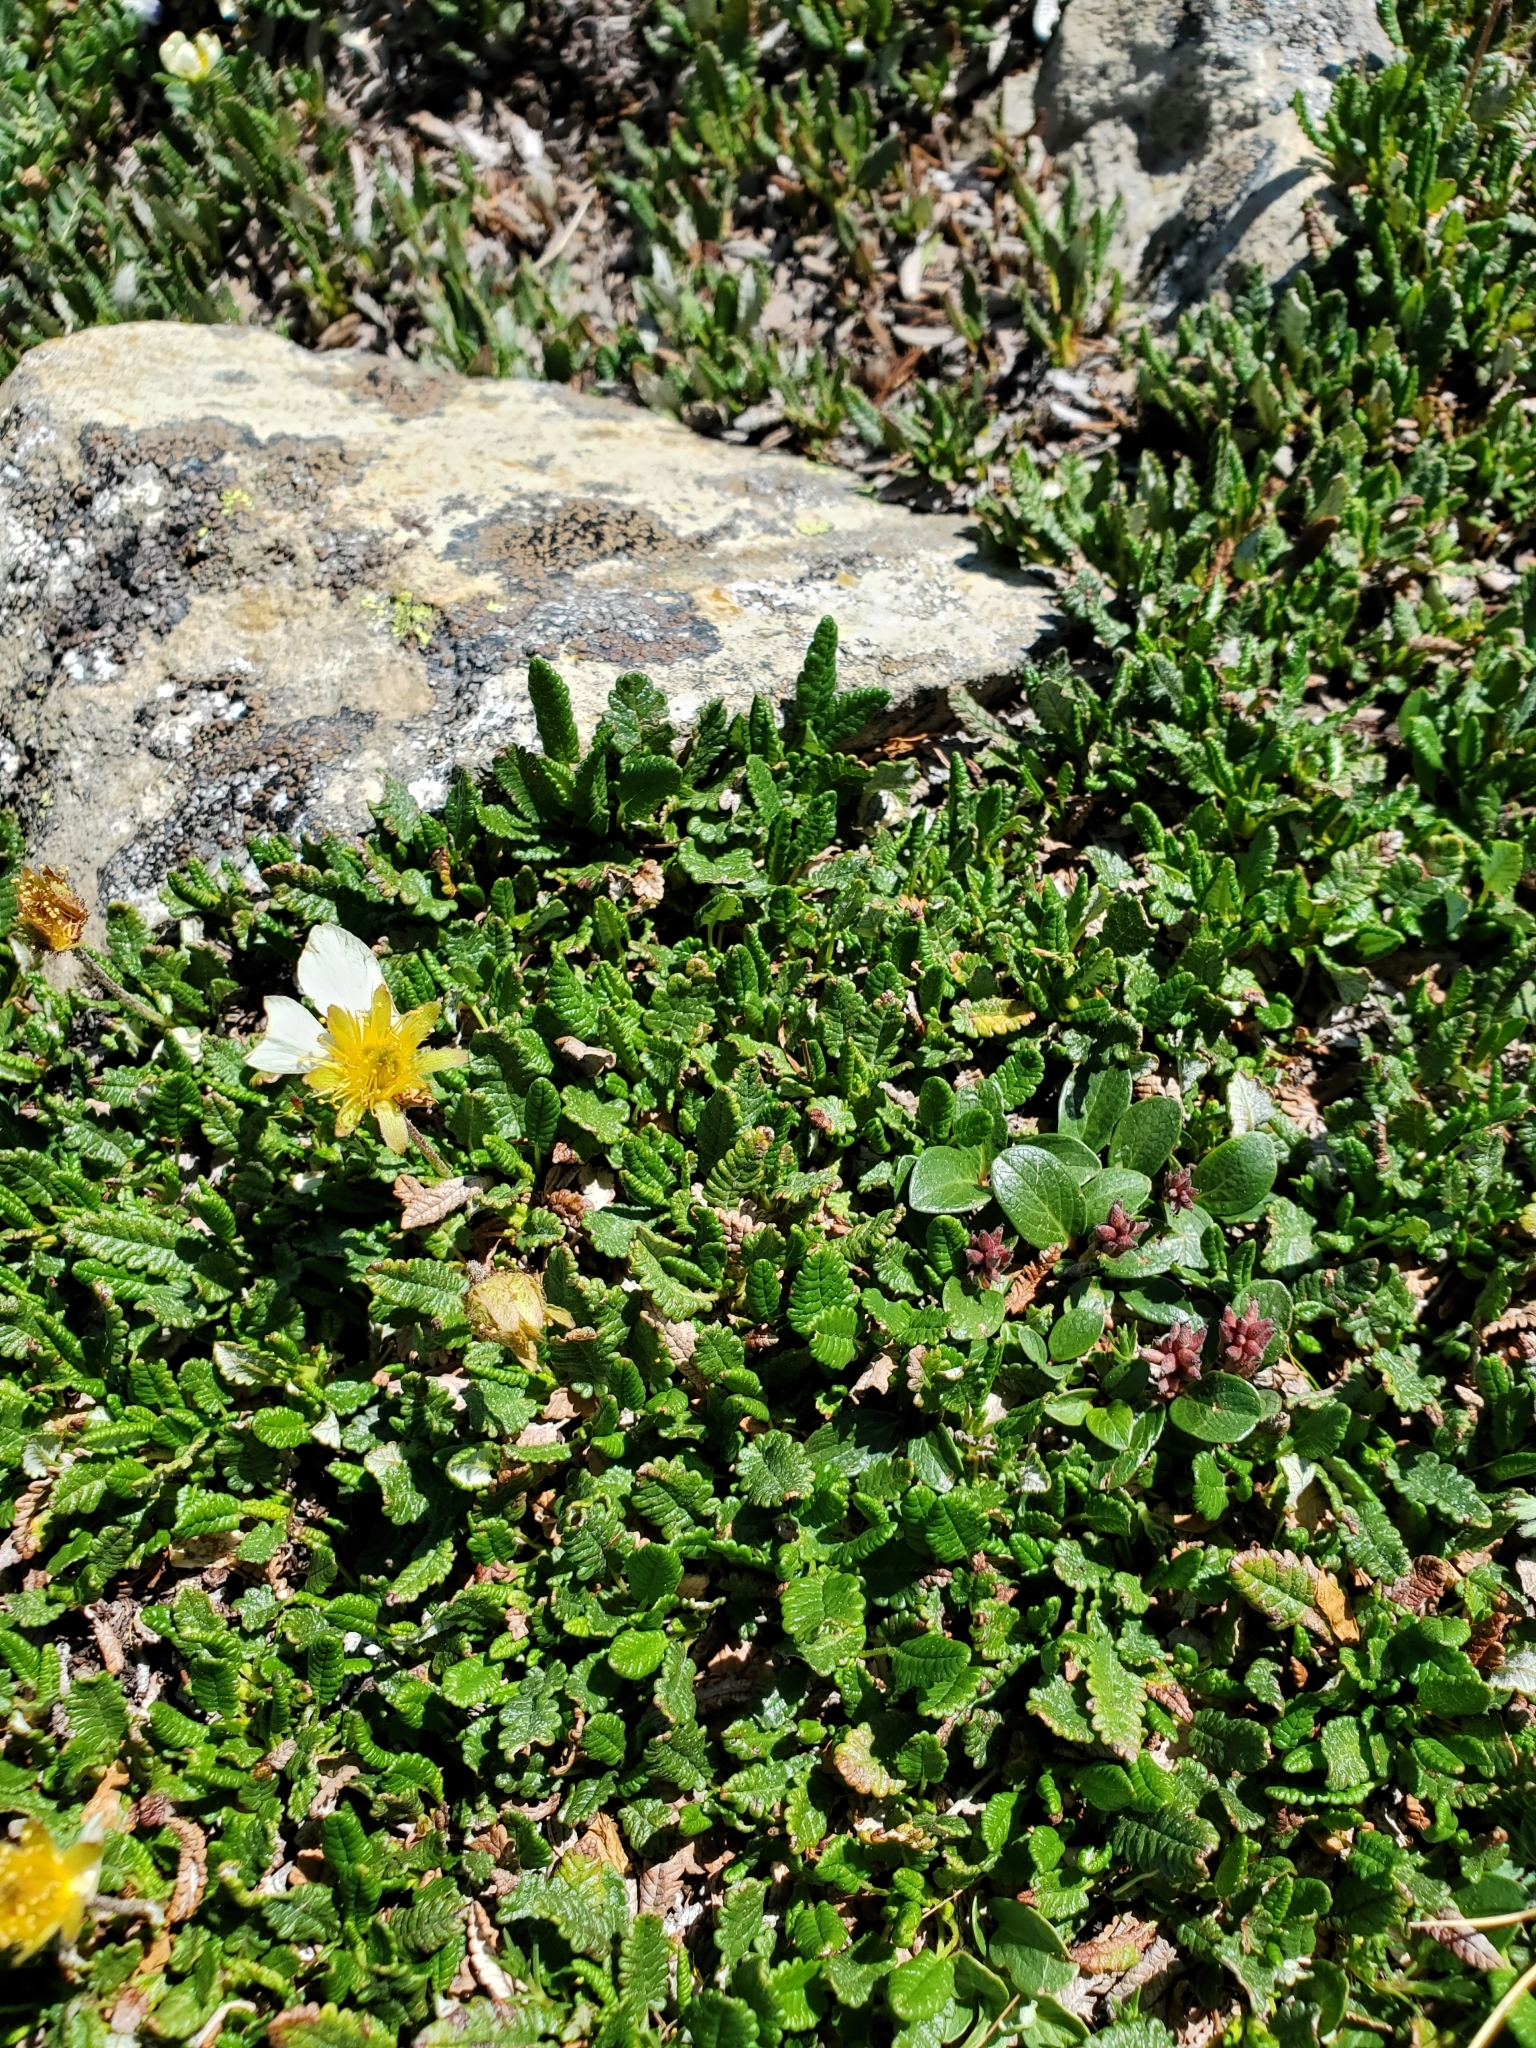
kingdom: Plantae
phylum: Tracheophyta
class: Magnoliopsida
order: Rosales
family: Rosaceae
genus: Dryas
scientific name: Dryas octopetala
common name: Eight-petal mountain-avens
